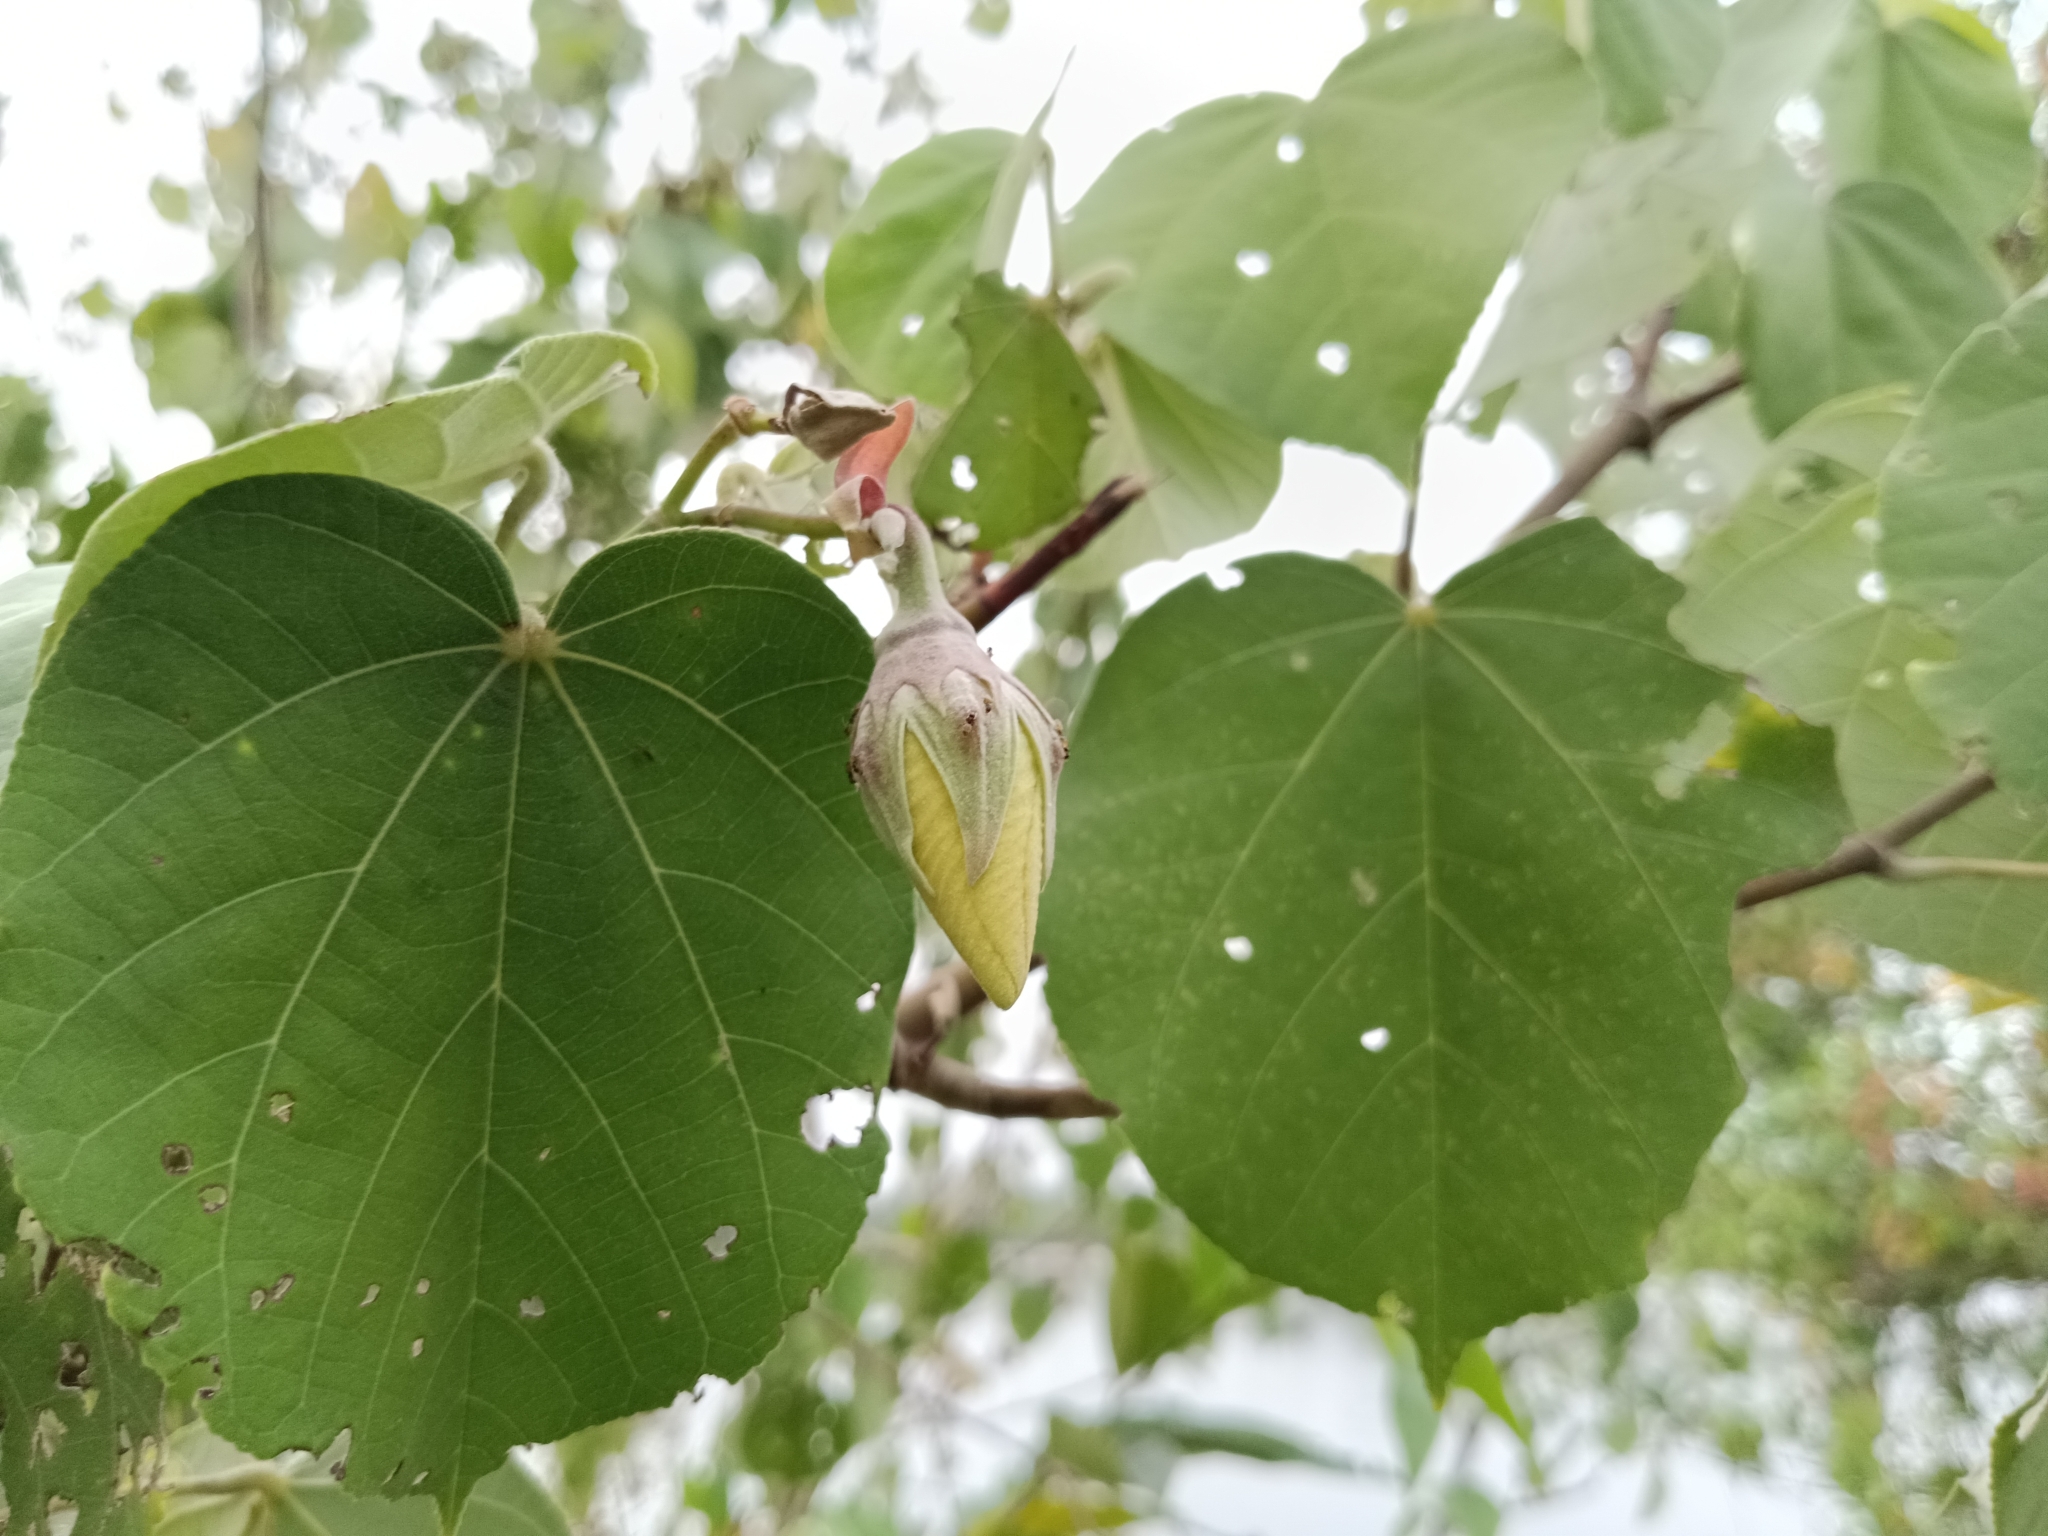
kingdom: Plantae
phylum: Tracheophyta
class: Magnoliopsida
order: Malvales
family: Malvaceae
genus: Talipariti
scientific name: Talipariti tiliaceum
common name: Sea hibiscus
